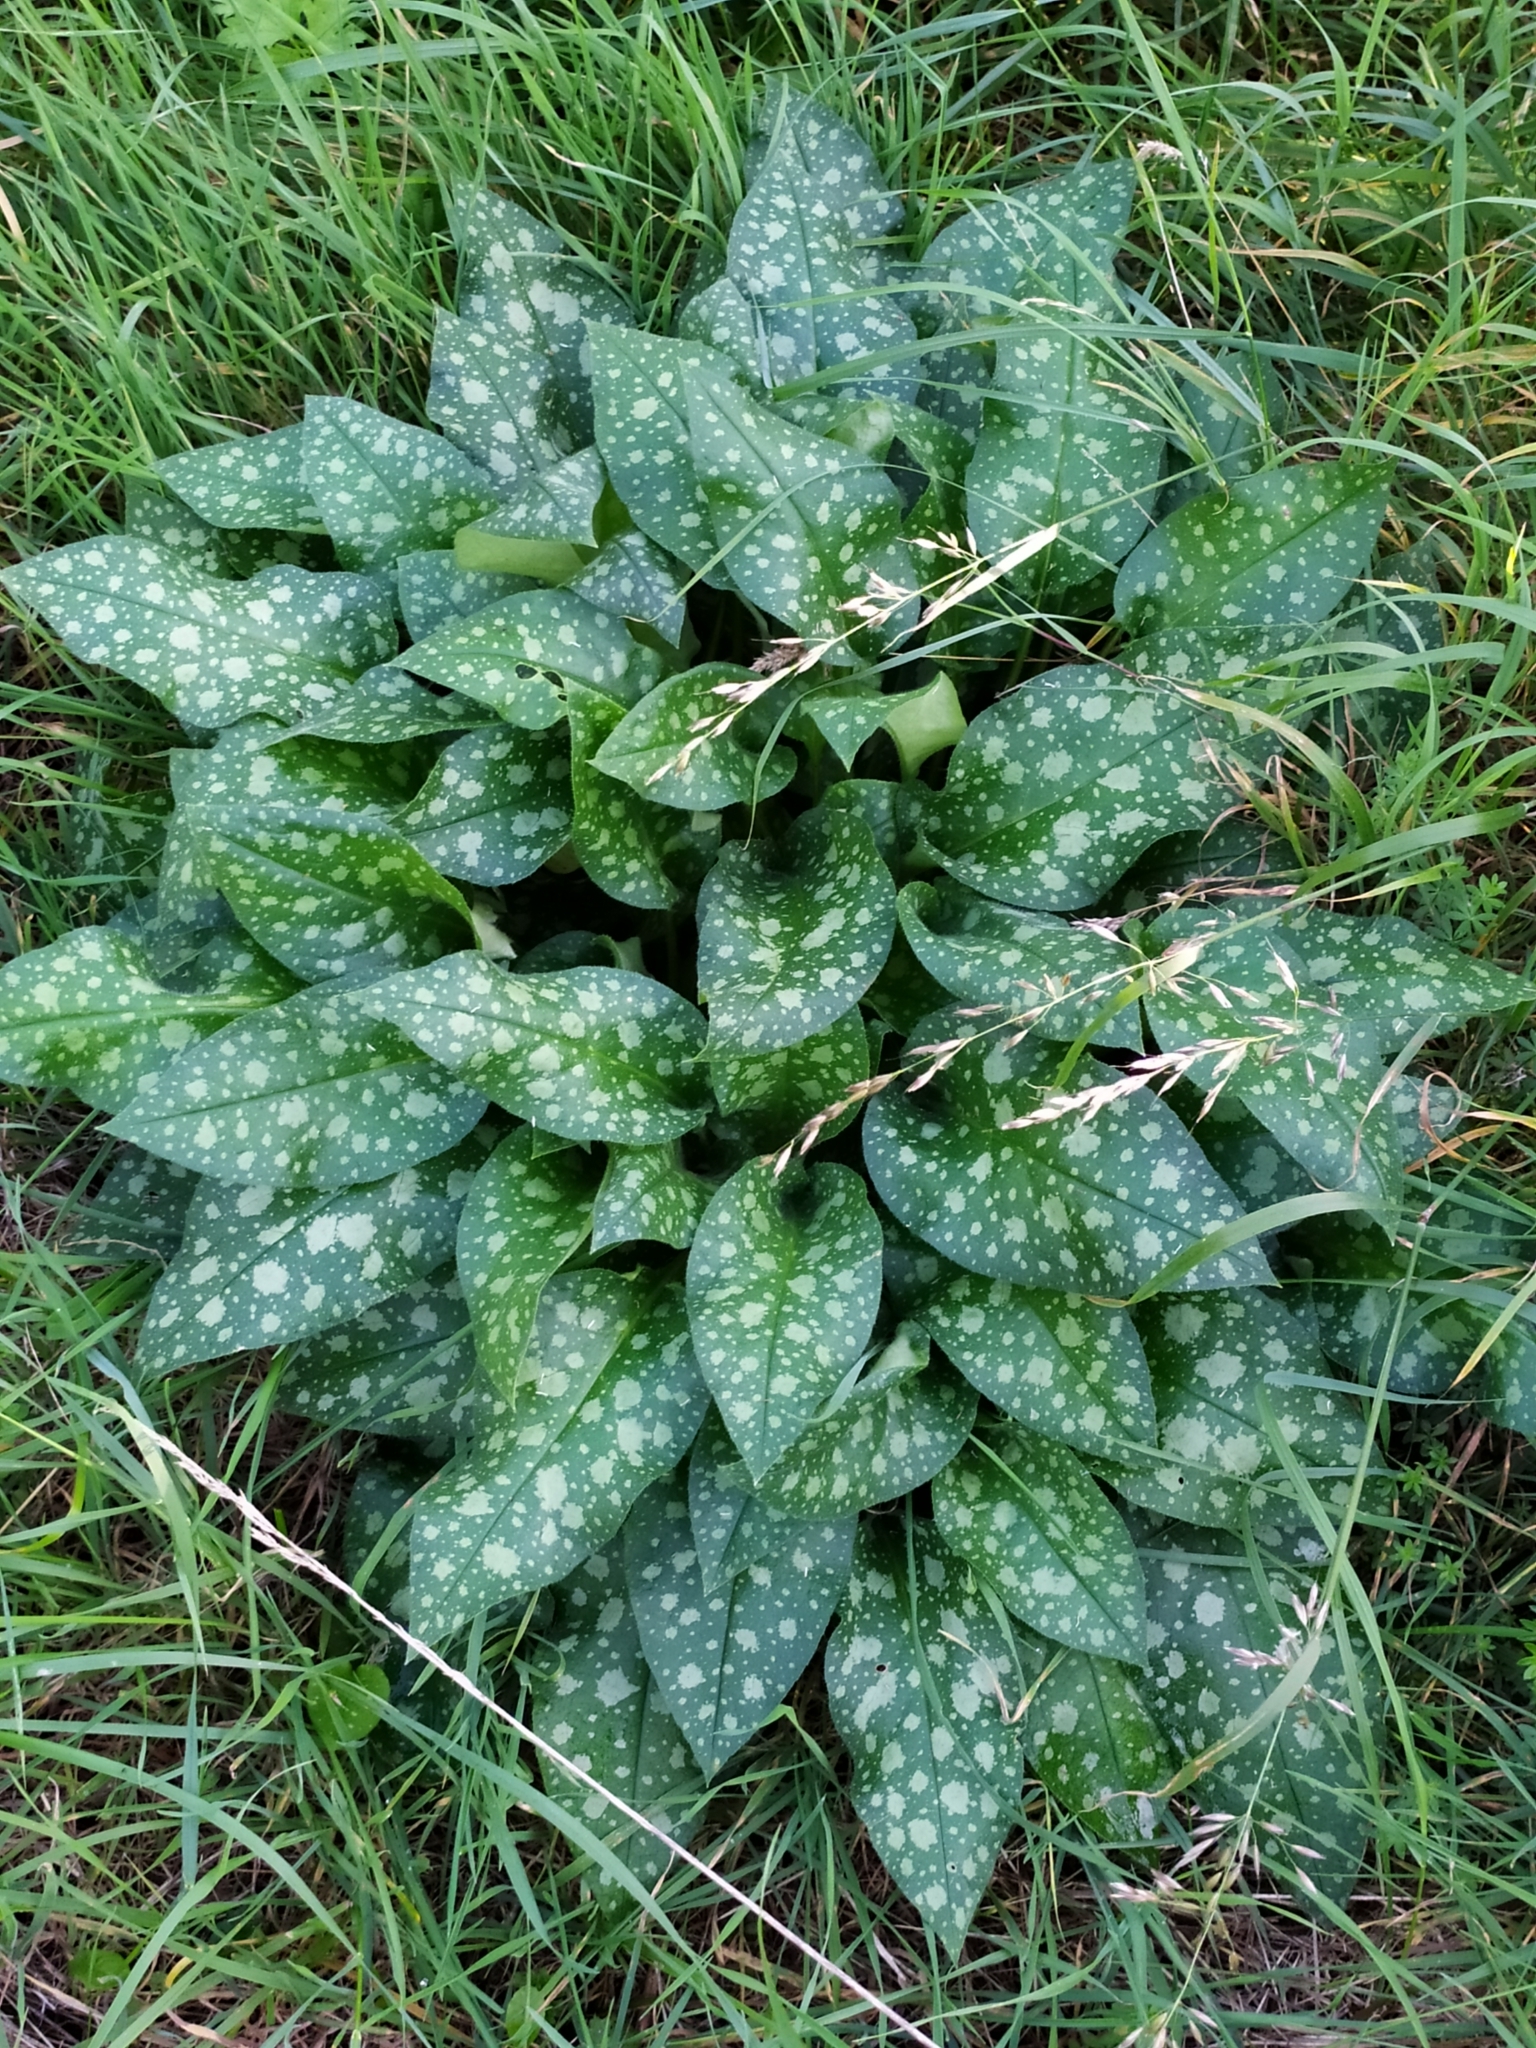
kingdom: Plantae
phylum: Tracheophyta
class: Magnoliopsida
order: Boraginales
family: Boraginaceae
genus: Pulmonaria
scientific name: Pulmonaria officinalis
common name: Lungwort
